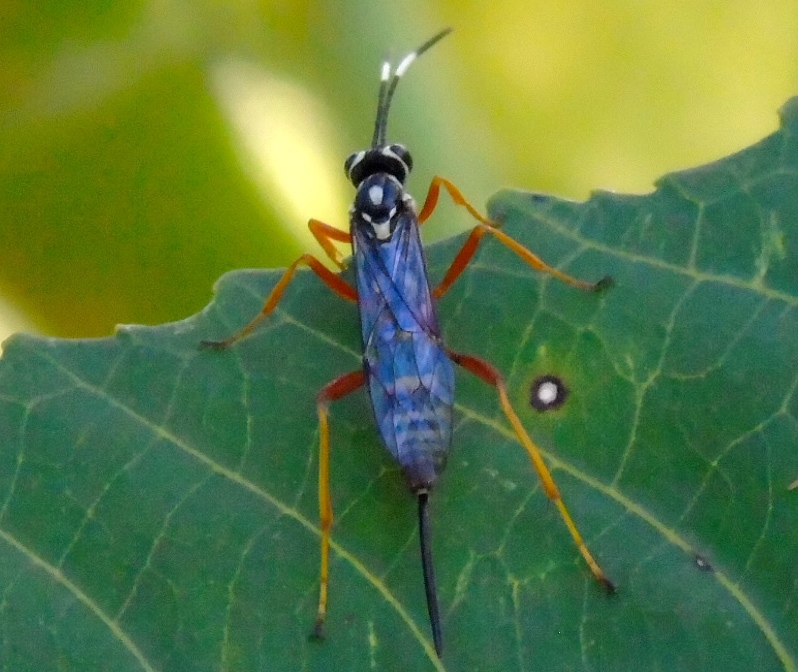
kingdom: Animalia
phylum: Arthropoda
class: Insecta
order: Hymenoptera
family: Ichneumonidae
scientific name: Ichneumonidae
